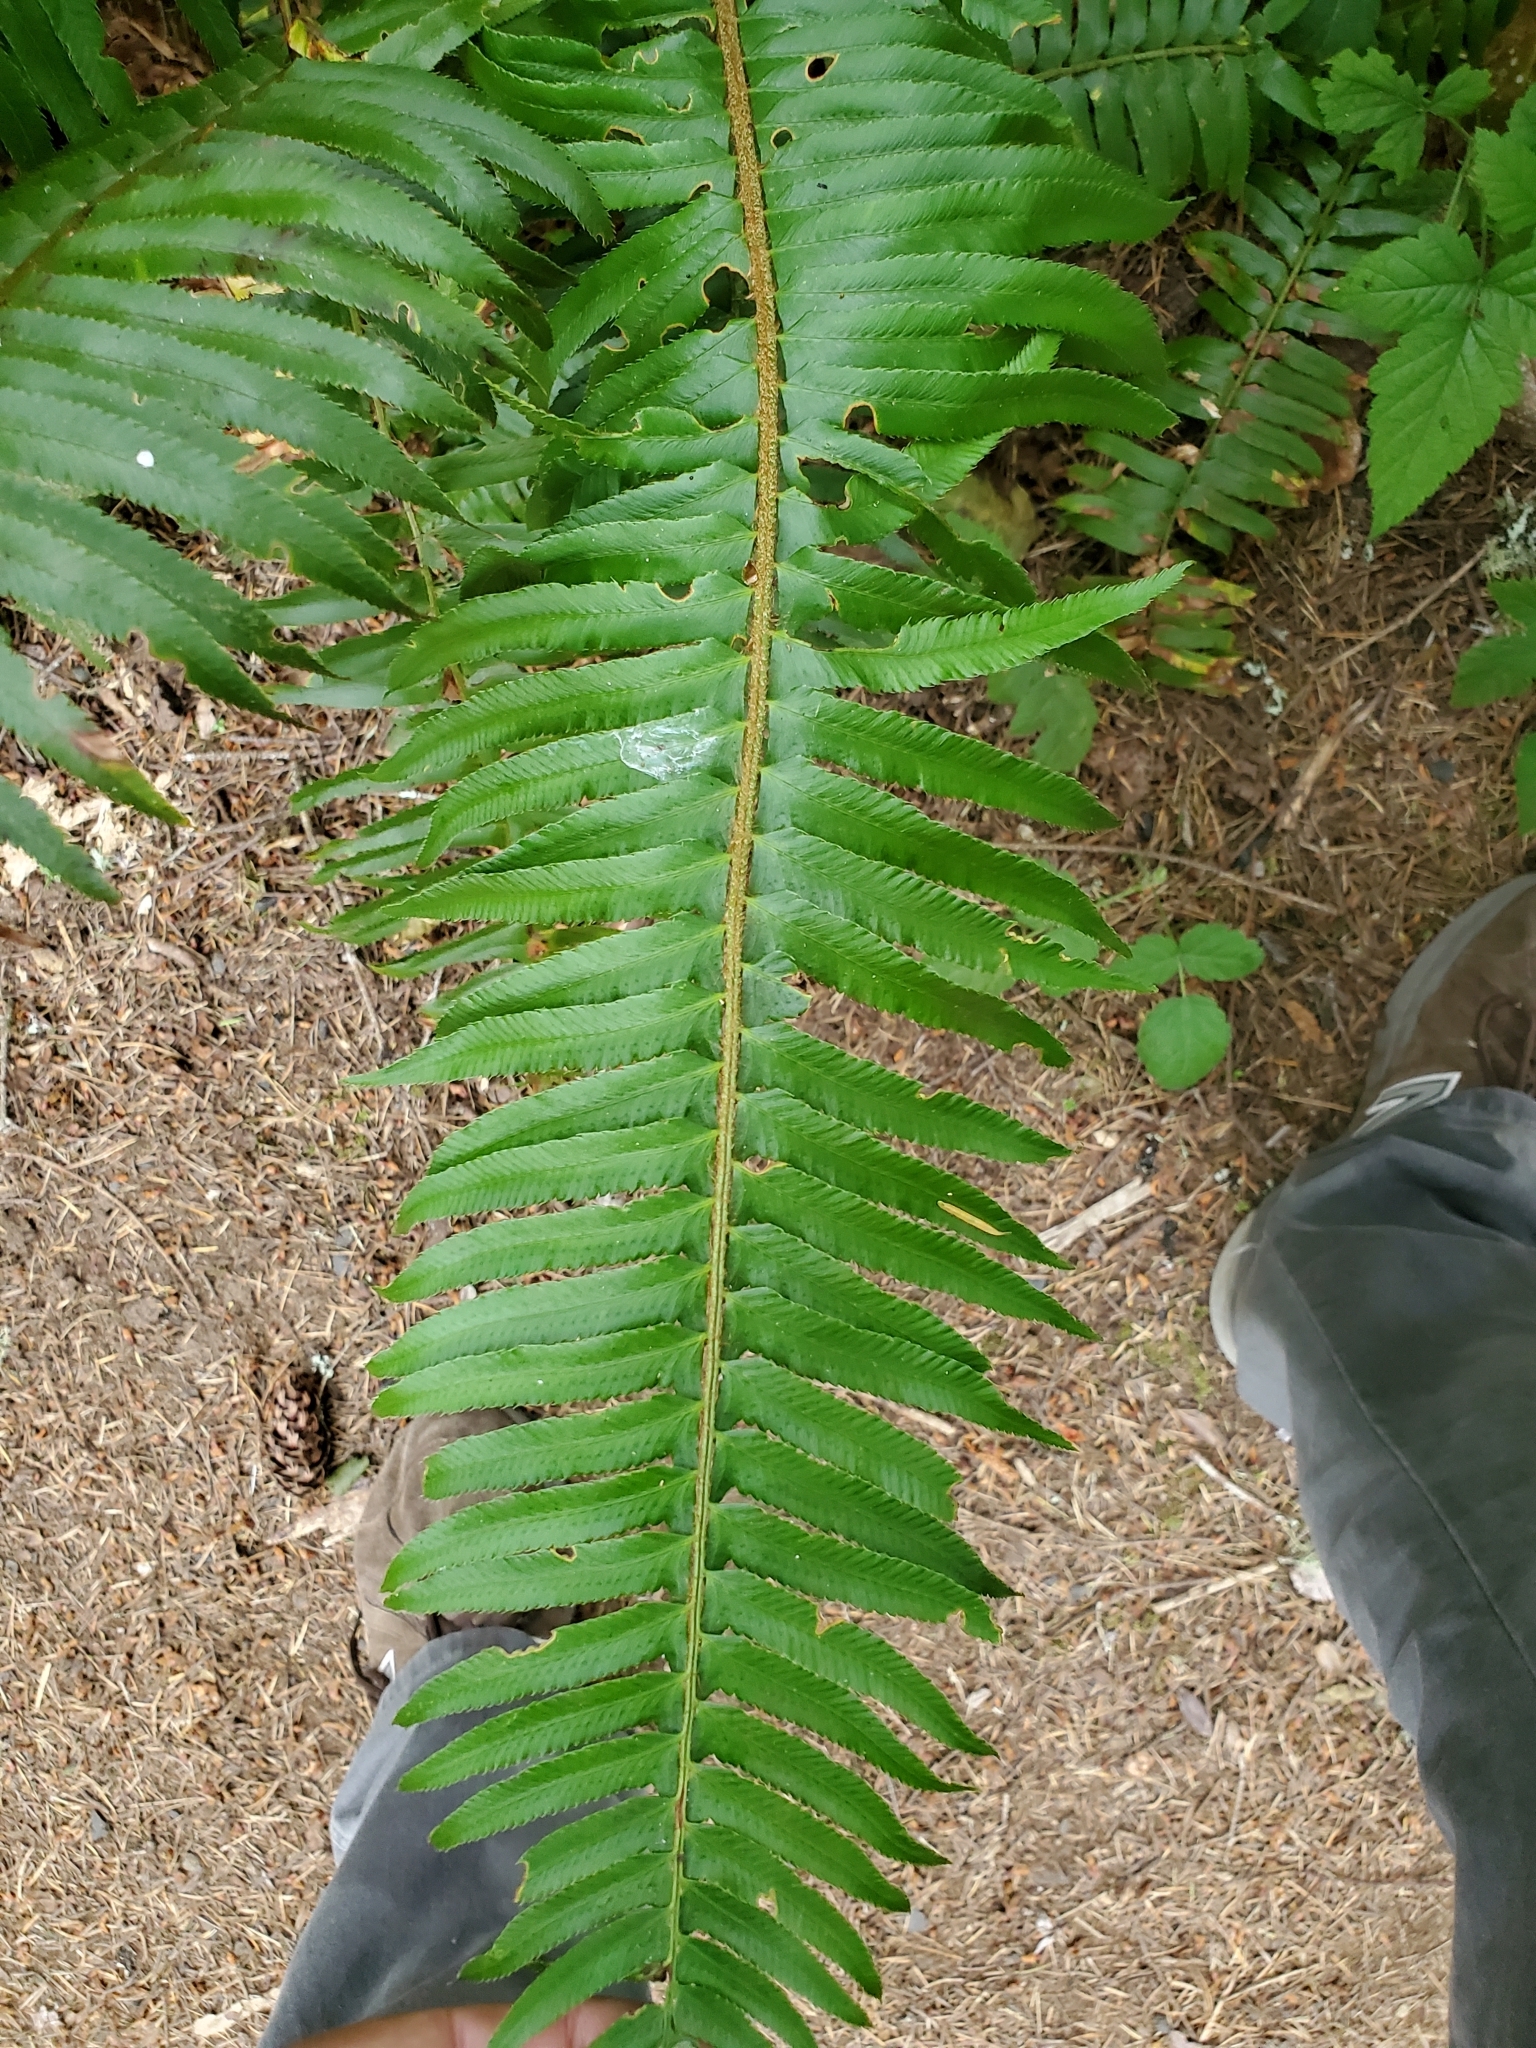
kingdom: Plantae
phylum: Tracheophyta
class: Polypodiopsida
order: Polypodiales
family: Dryopteridaceae
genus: Polystichum
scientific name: Polystichum munitum
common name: Western sword-fern
